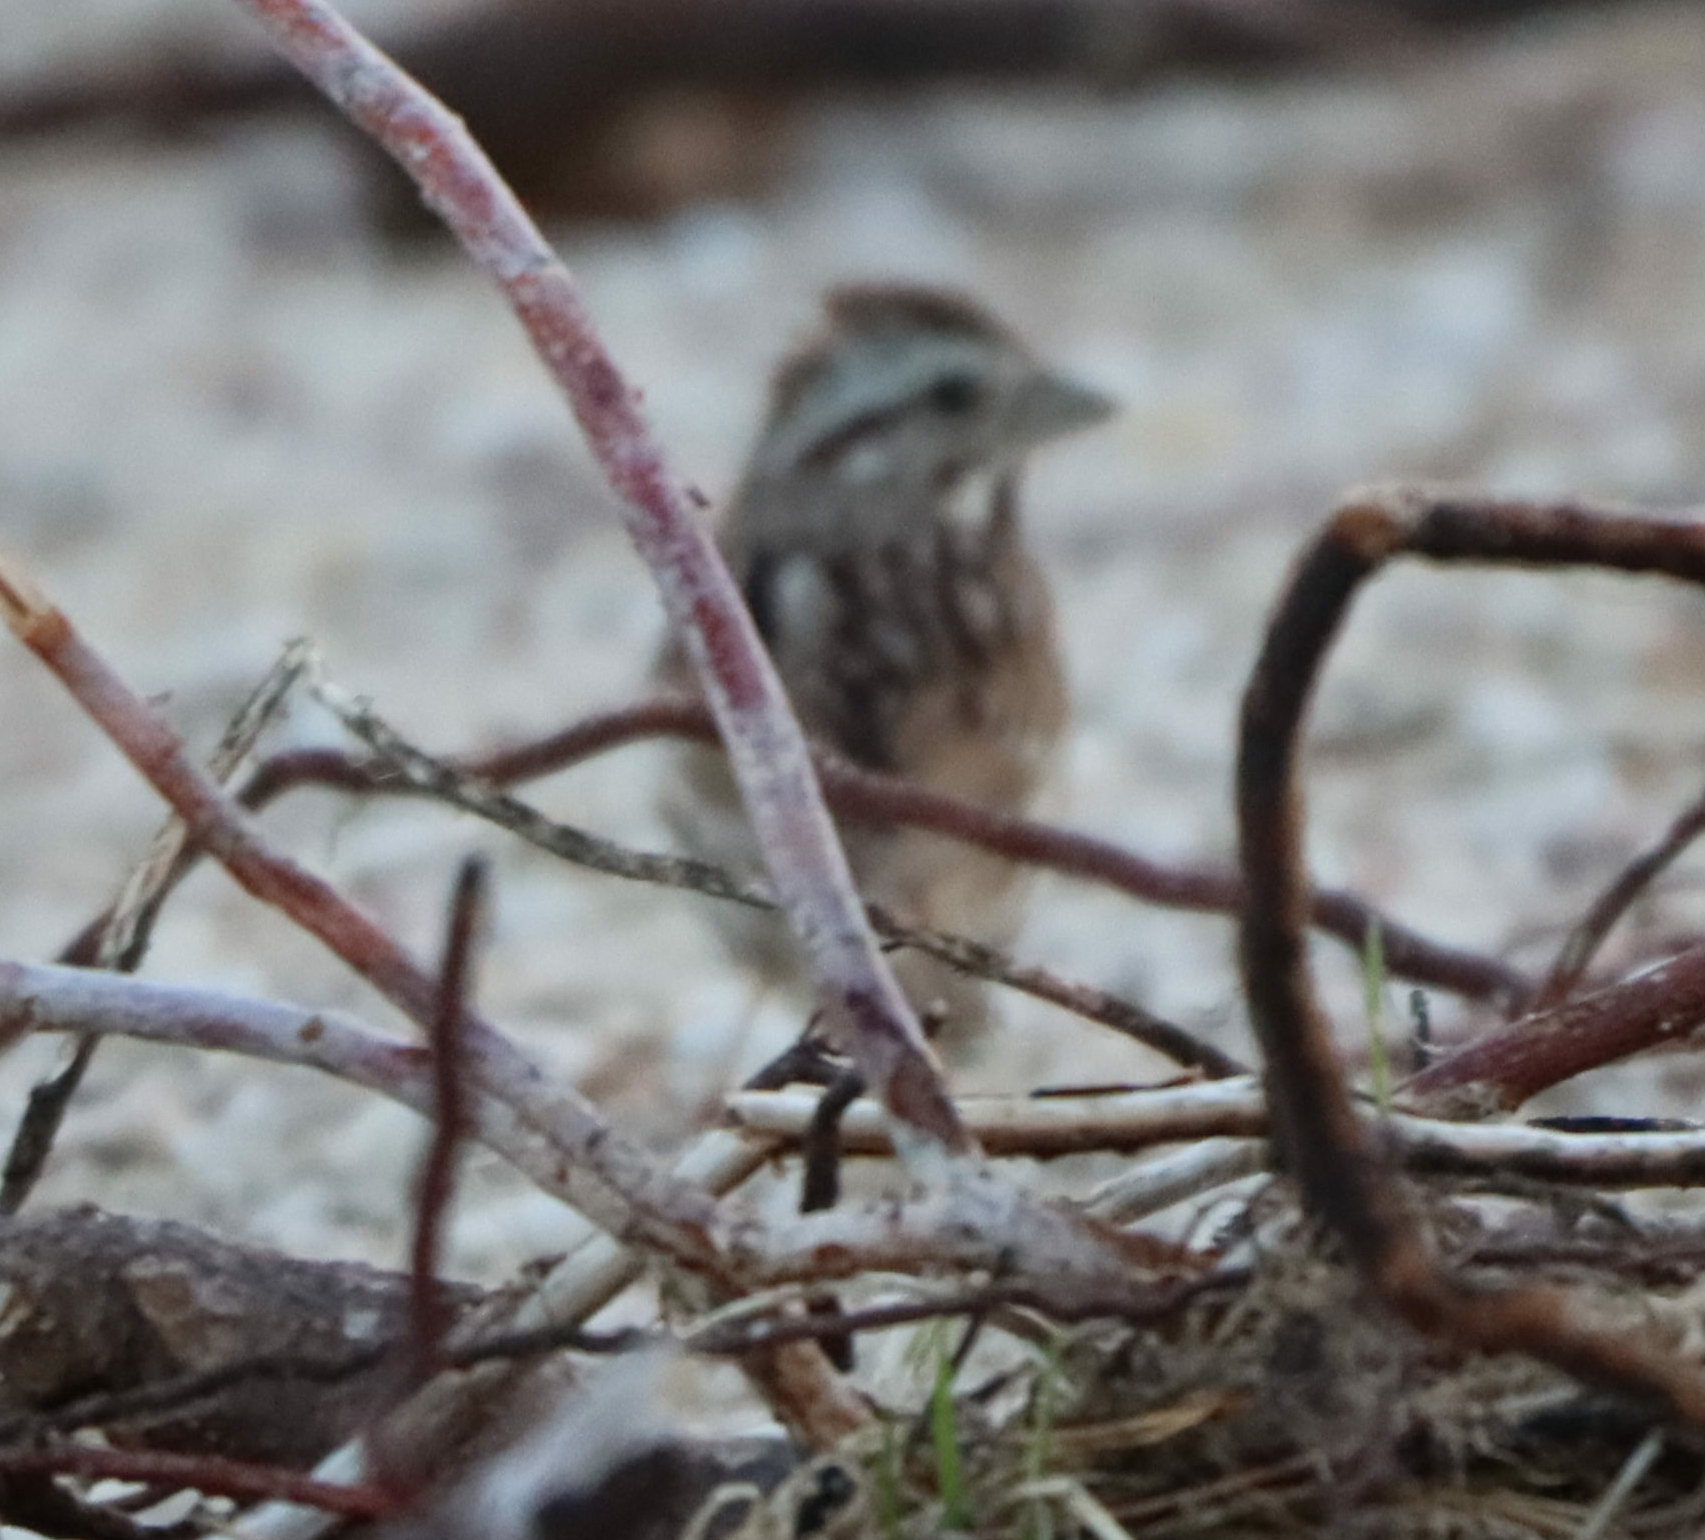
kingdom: Animalia
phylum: Chordata
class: Aves
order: Passeriformes
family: Passerellidae
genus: Melospiza
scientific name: Melospiza melodia
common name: Song sparrow
